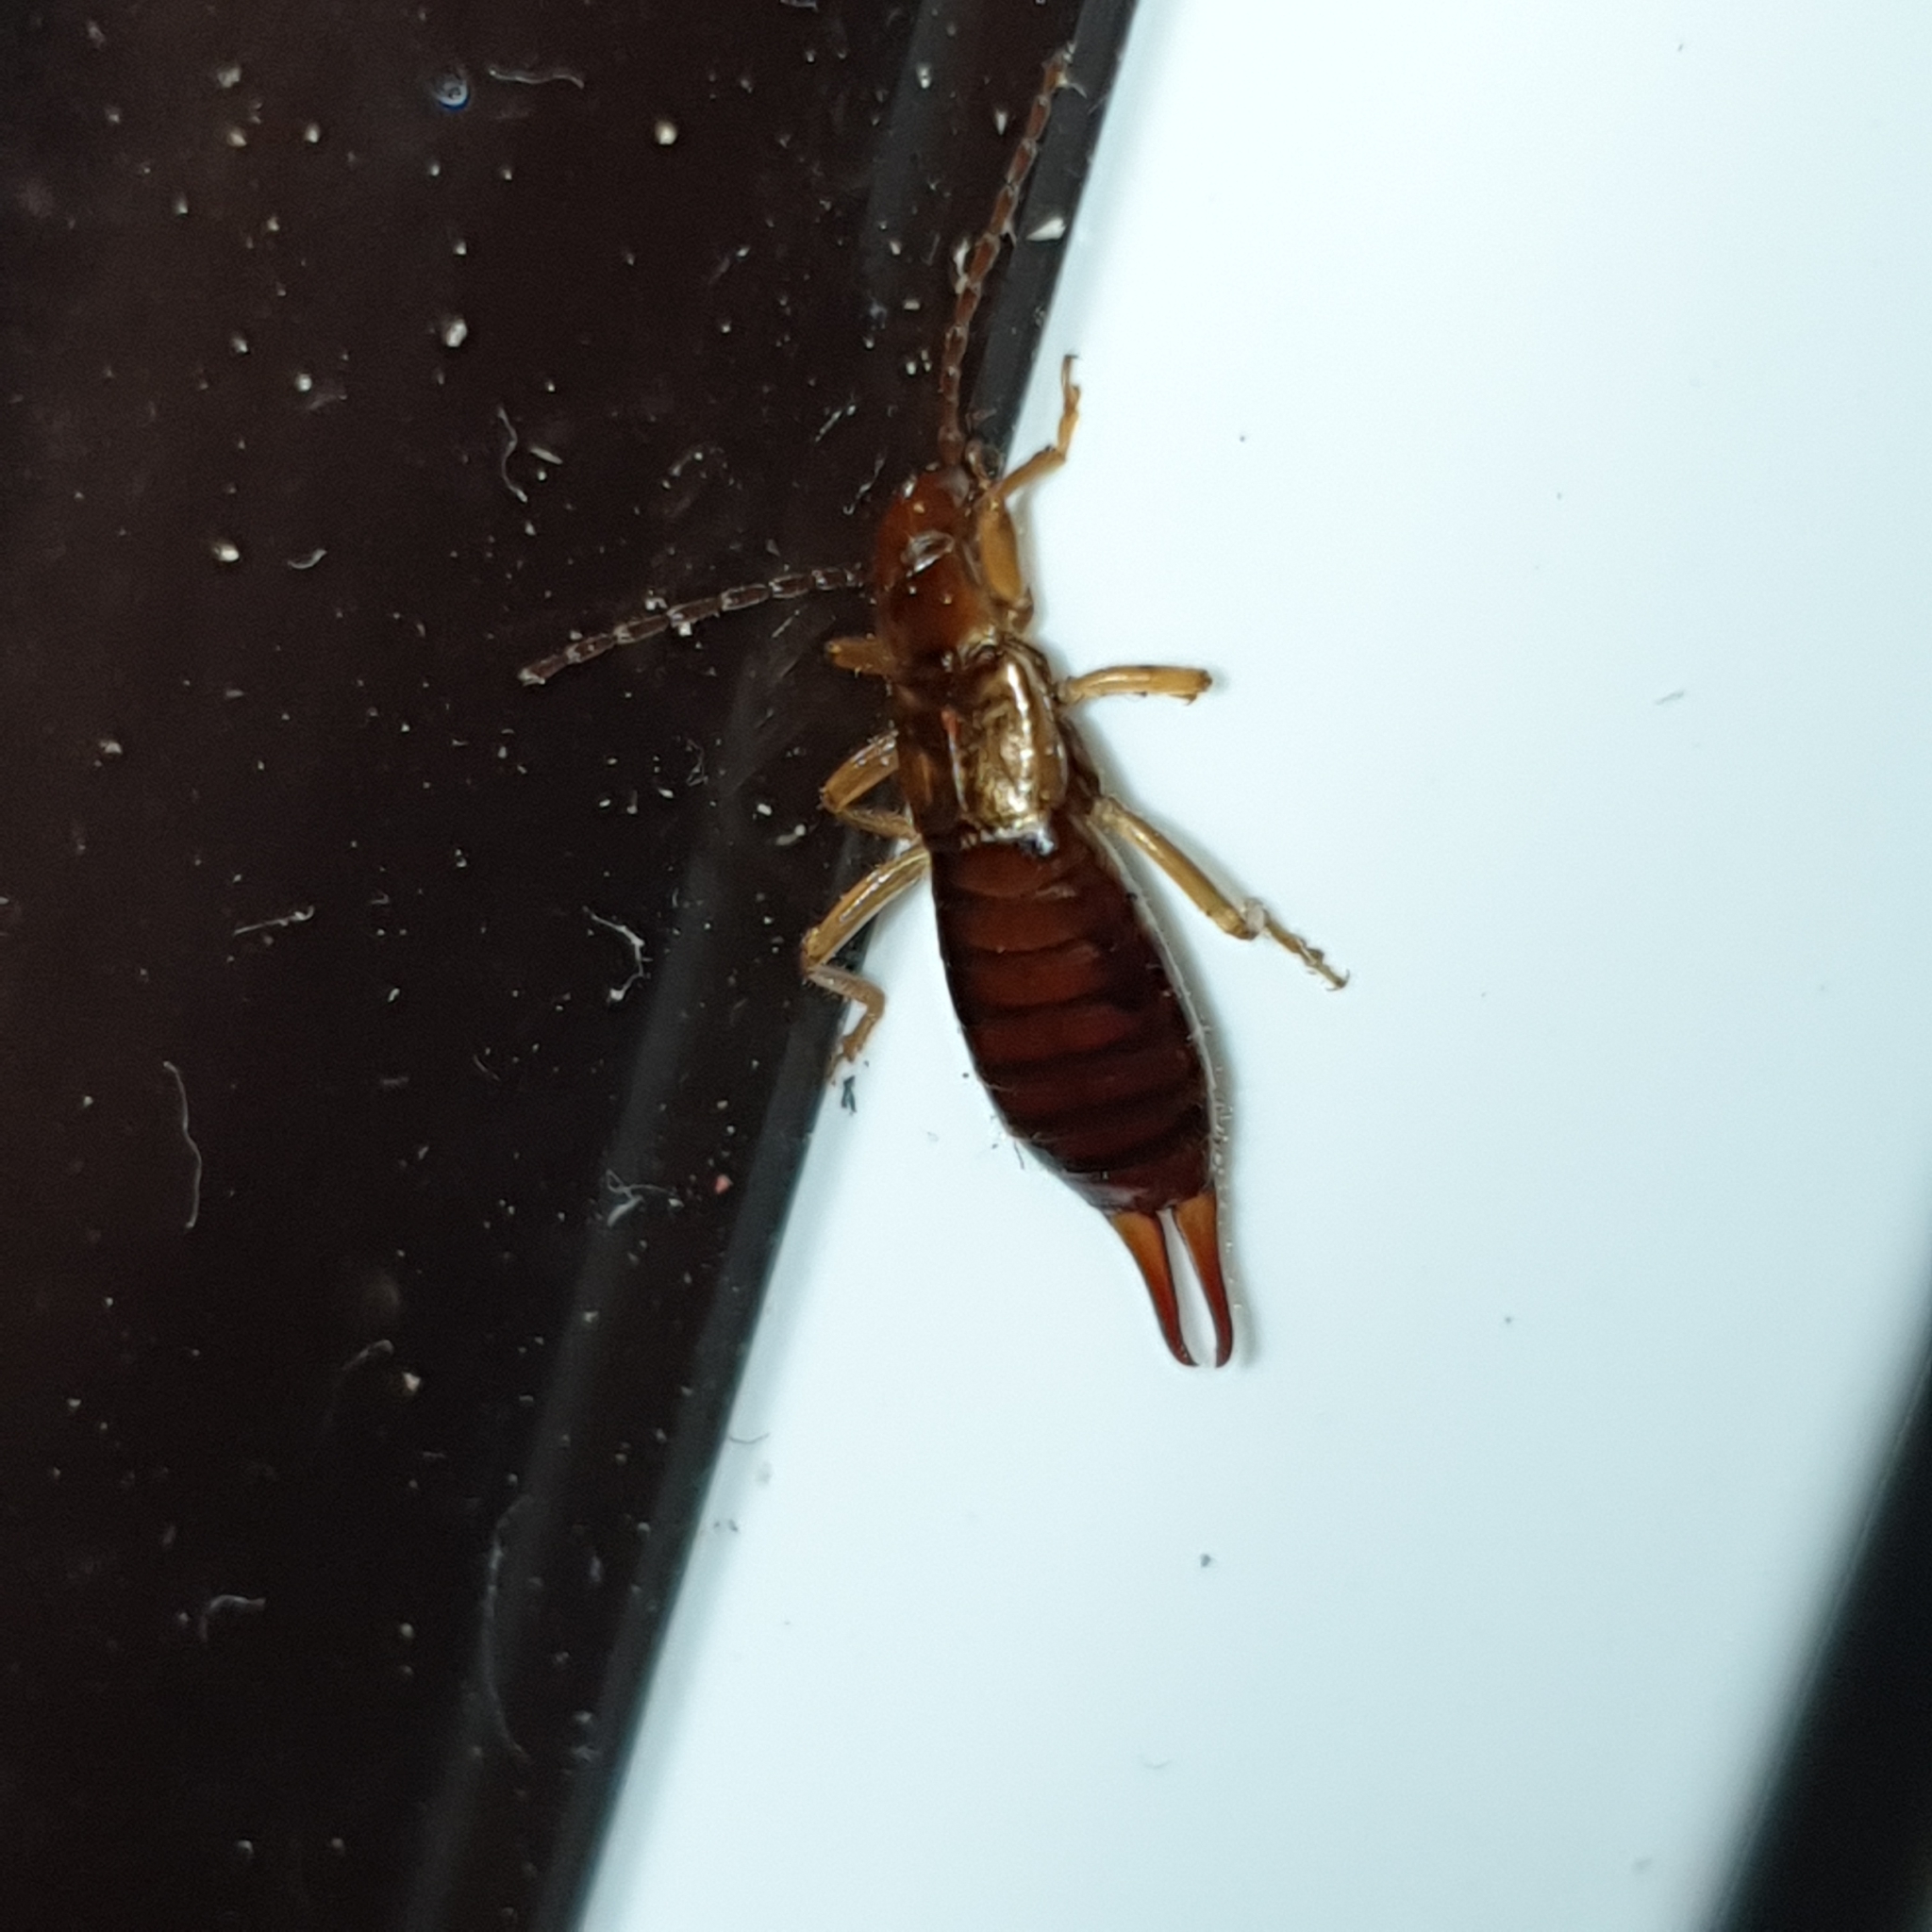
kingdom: Animalia
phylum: Arthropoda
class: Insecta
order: Dermaptera
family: Forficulidae
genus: Apterygida
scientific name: Apterygida albipennis
